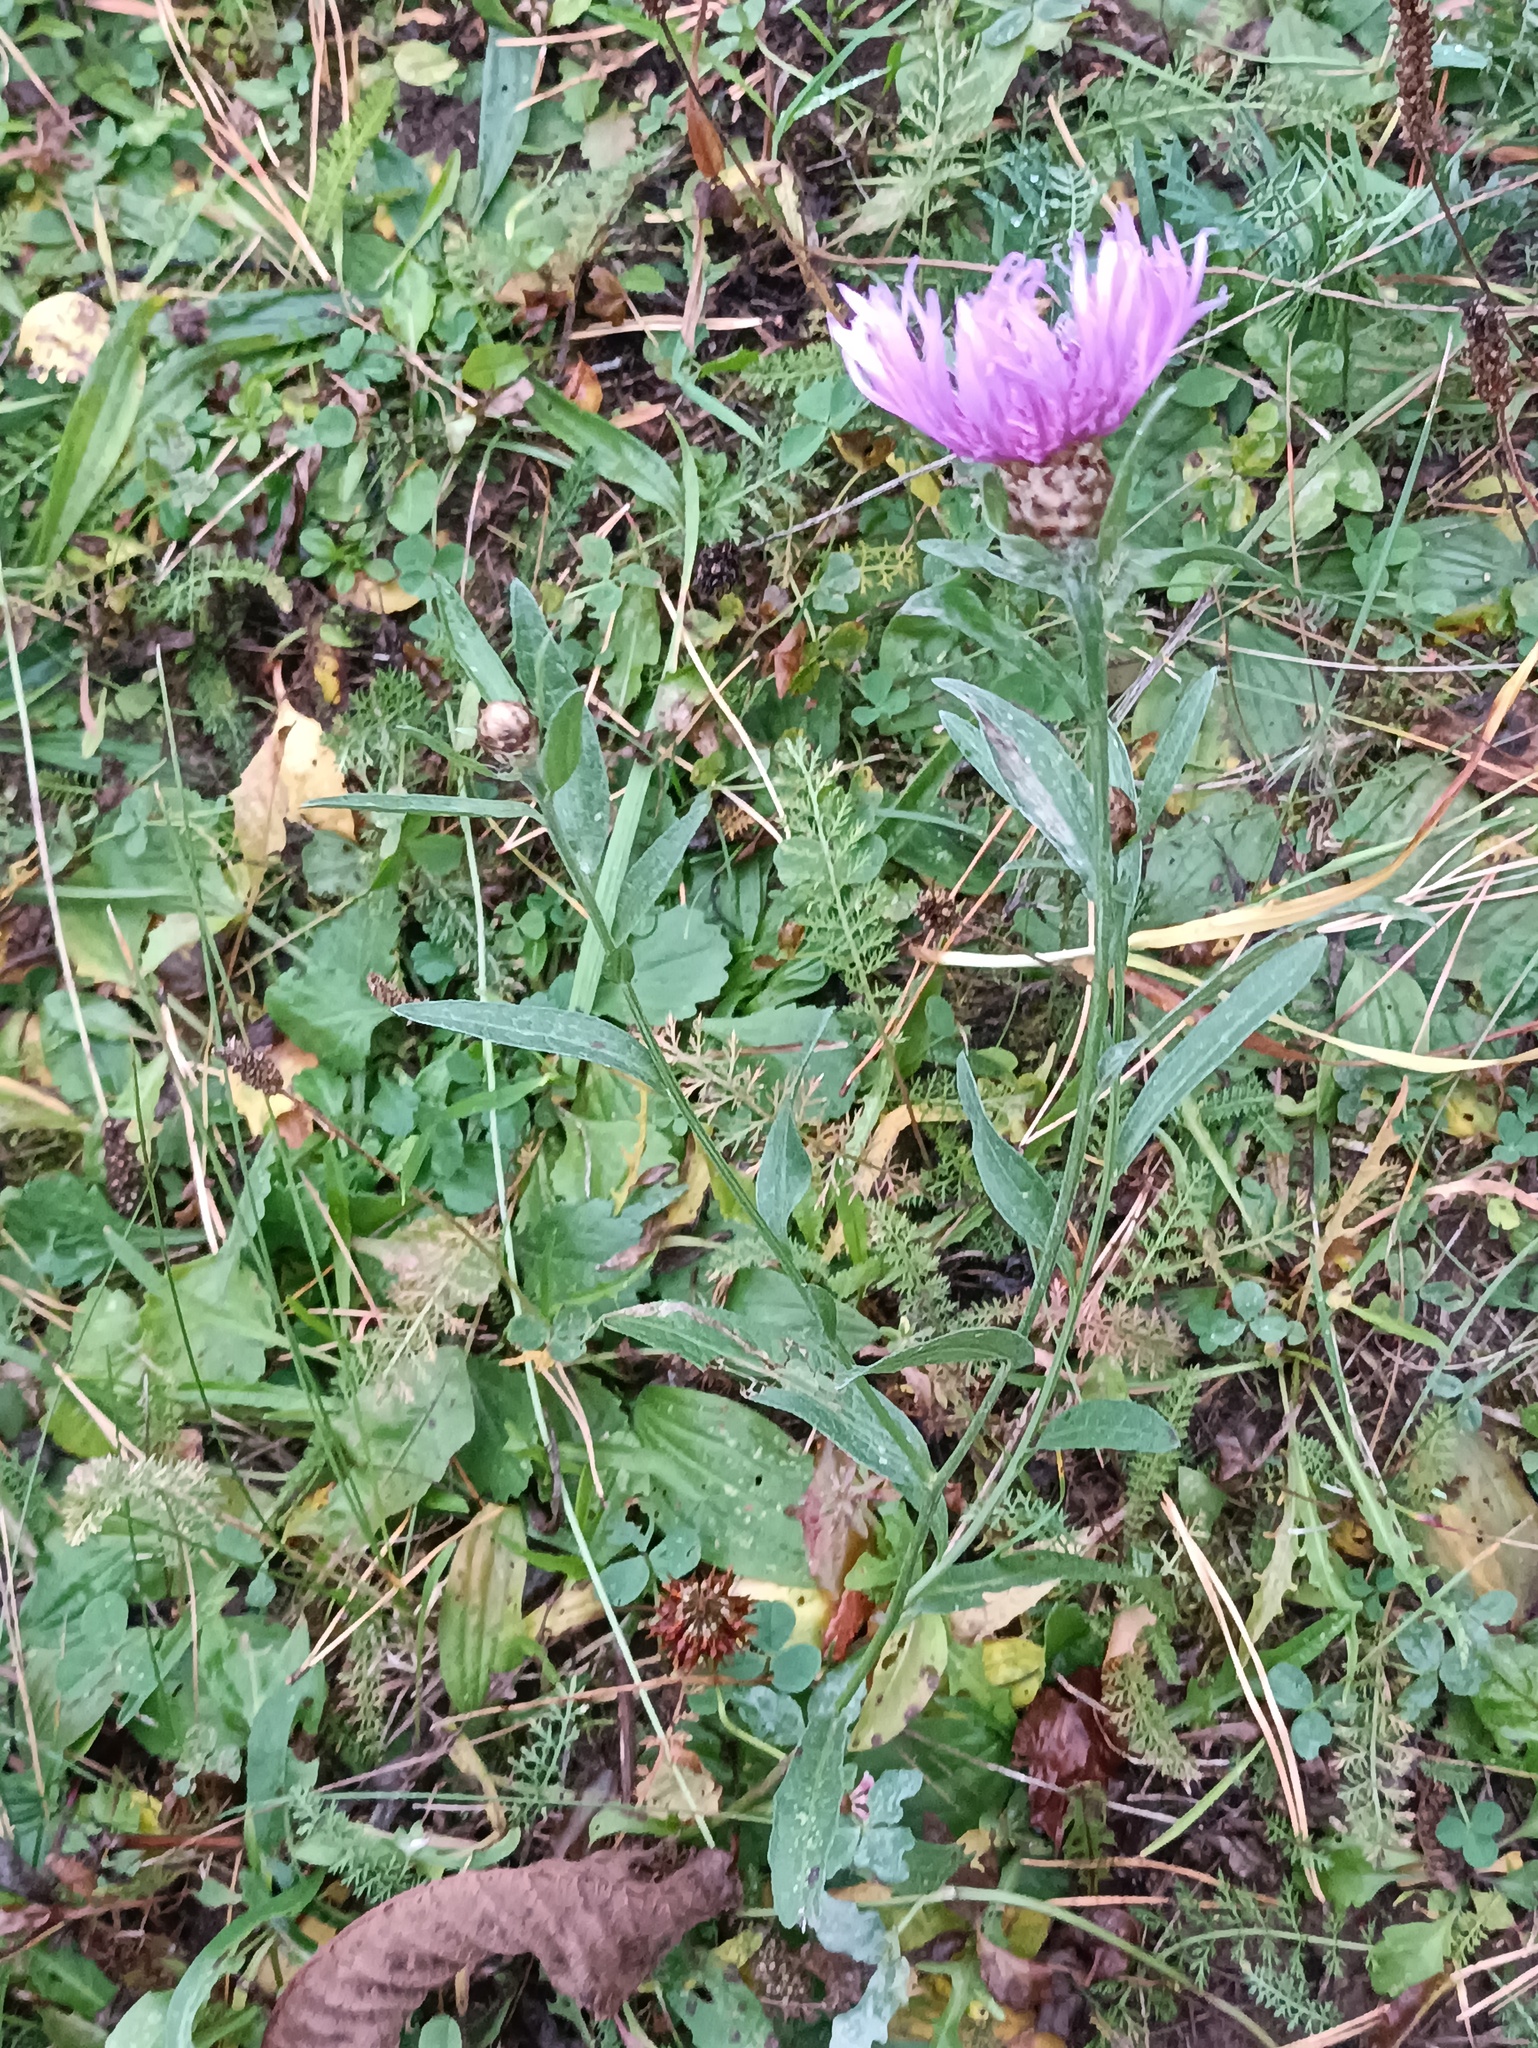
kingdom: Plantae
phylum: Tracheophyta
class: Magnoliopsida
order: Asterales
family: Asteraceae
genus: Centaurea
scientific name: Centaurea jacea
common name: Brown knapweed
